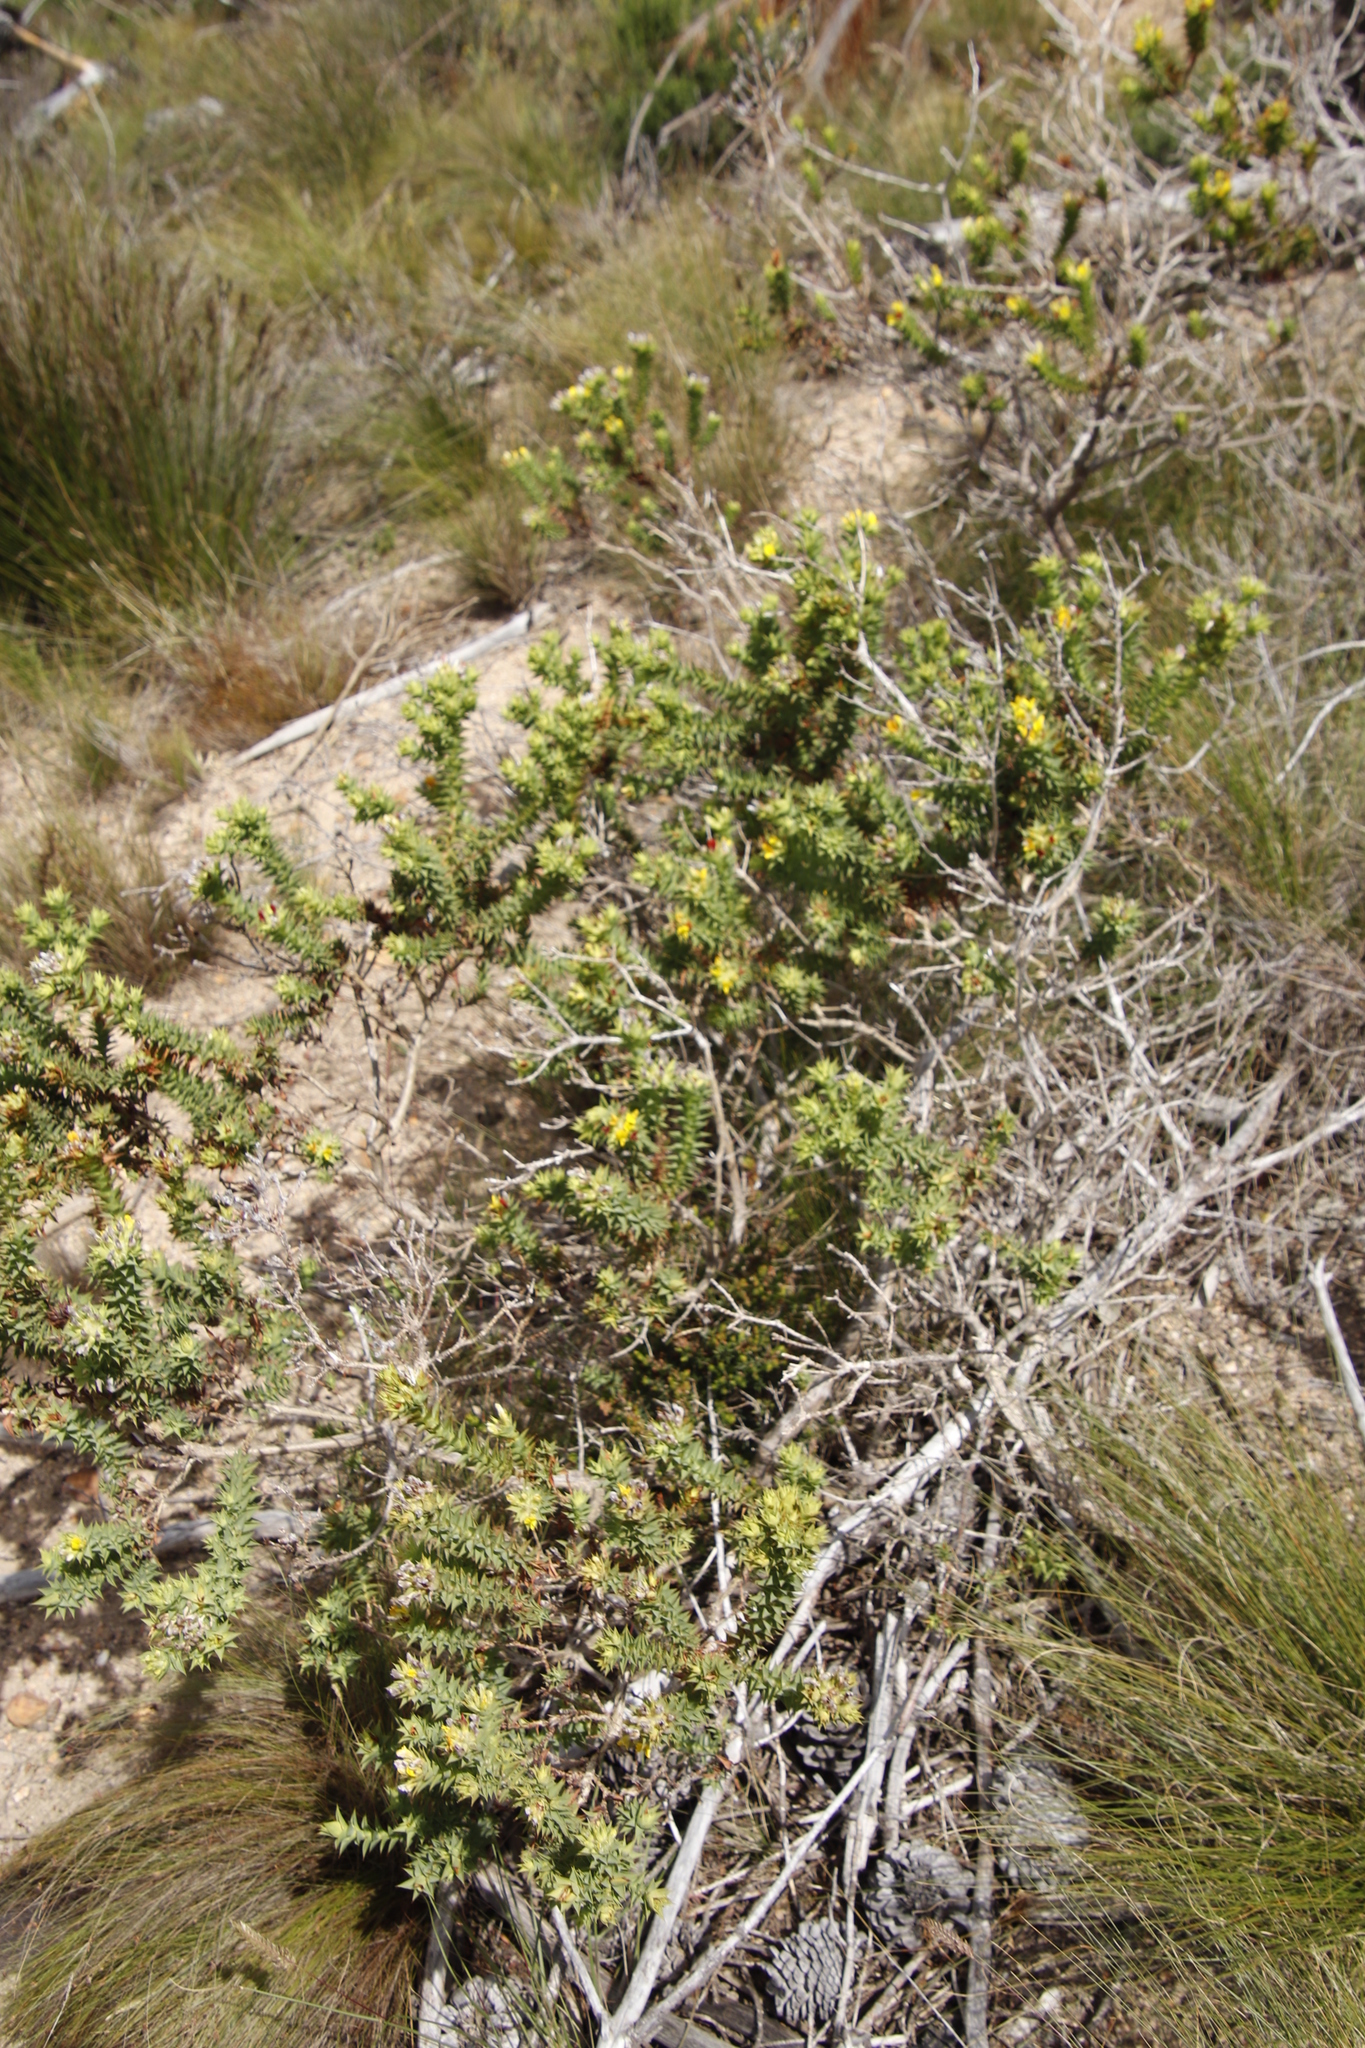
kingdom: Plantae
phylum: Tracheophyta
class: Magnoliopsida
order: Fabales
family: Fabaceae
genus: Aspalathus
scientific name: Aspalathus cordata
